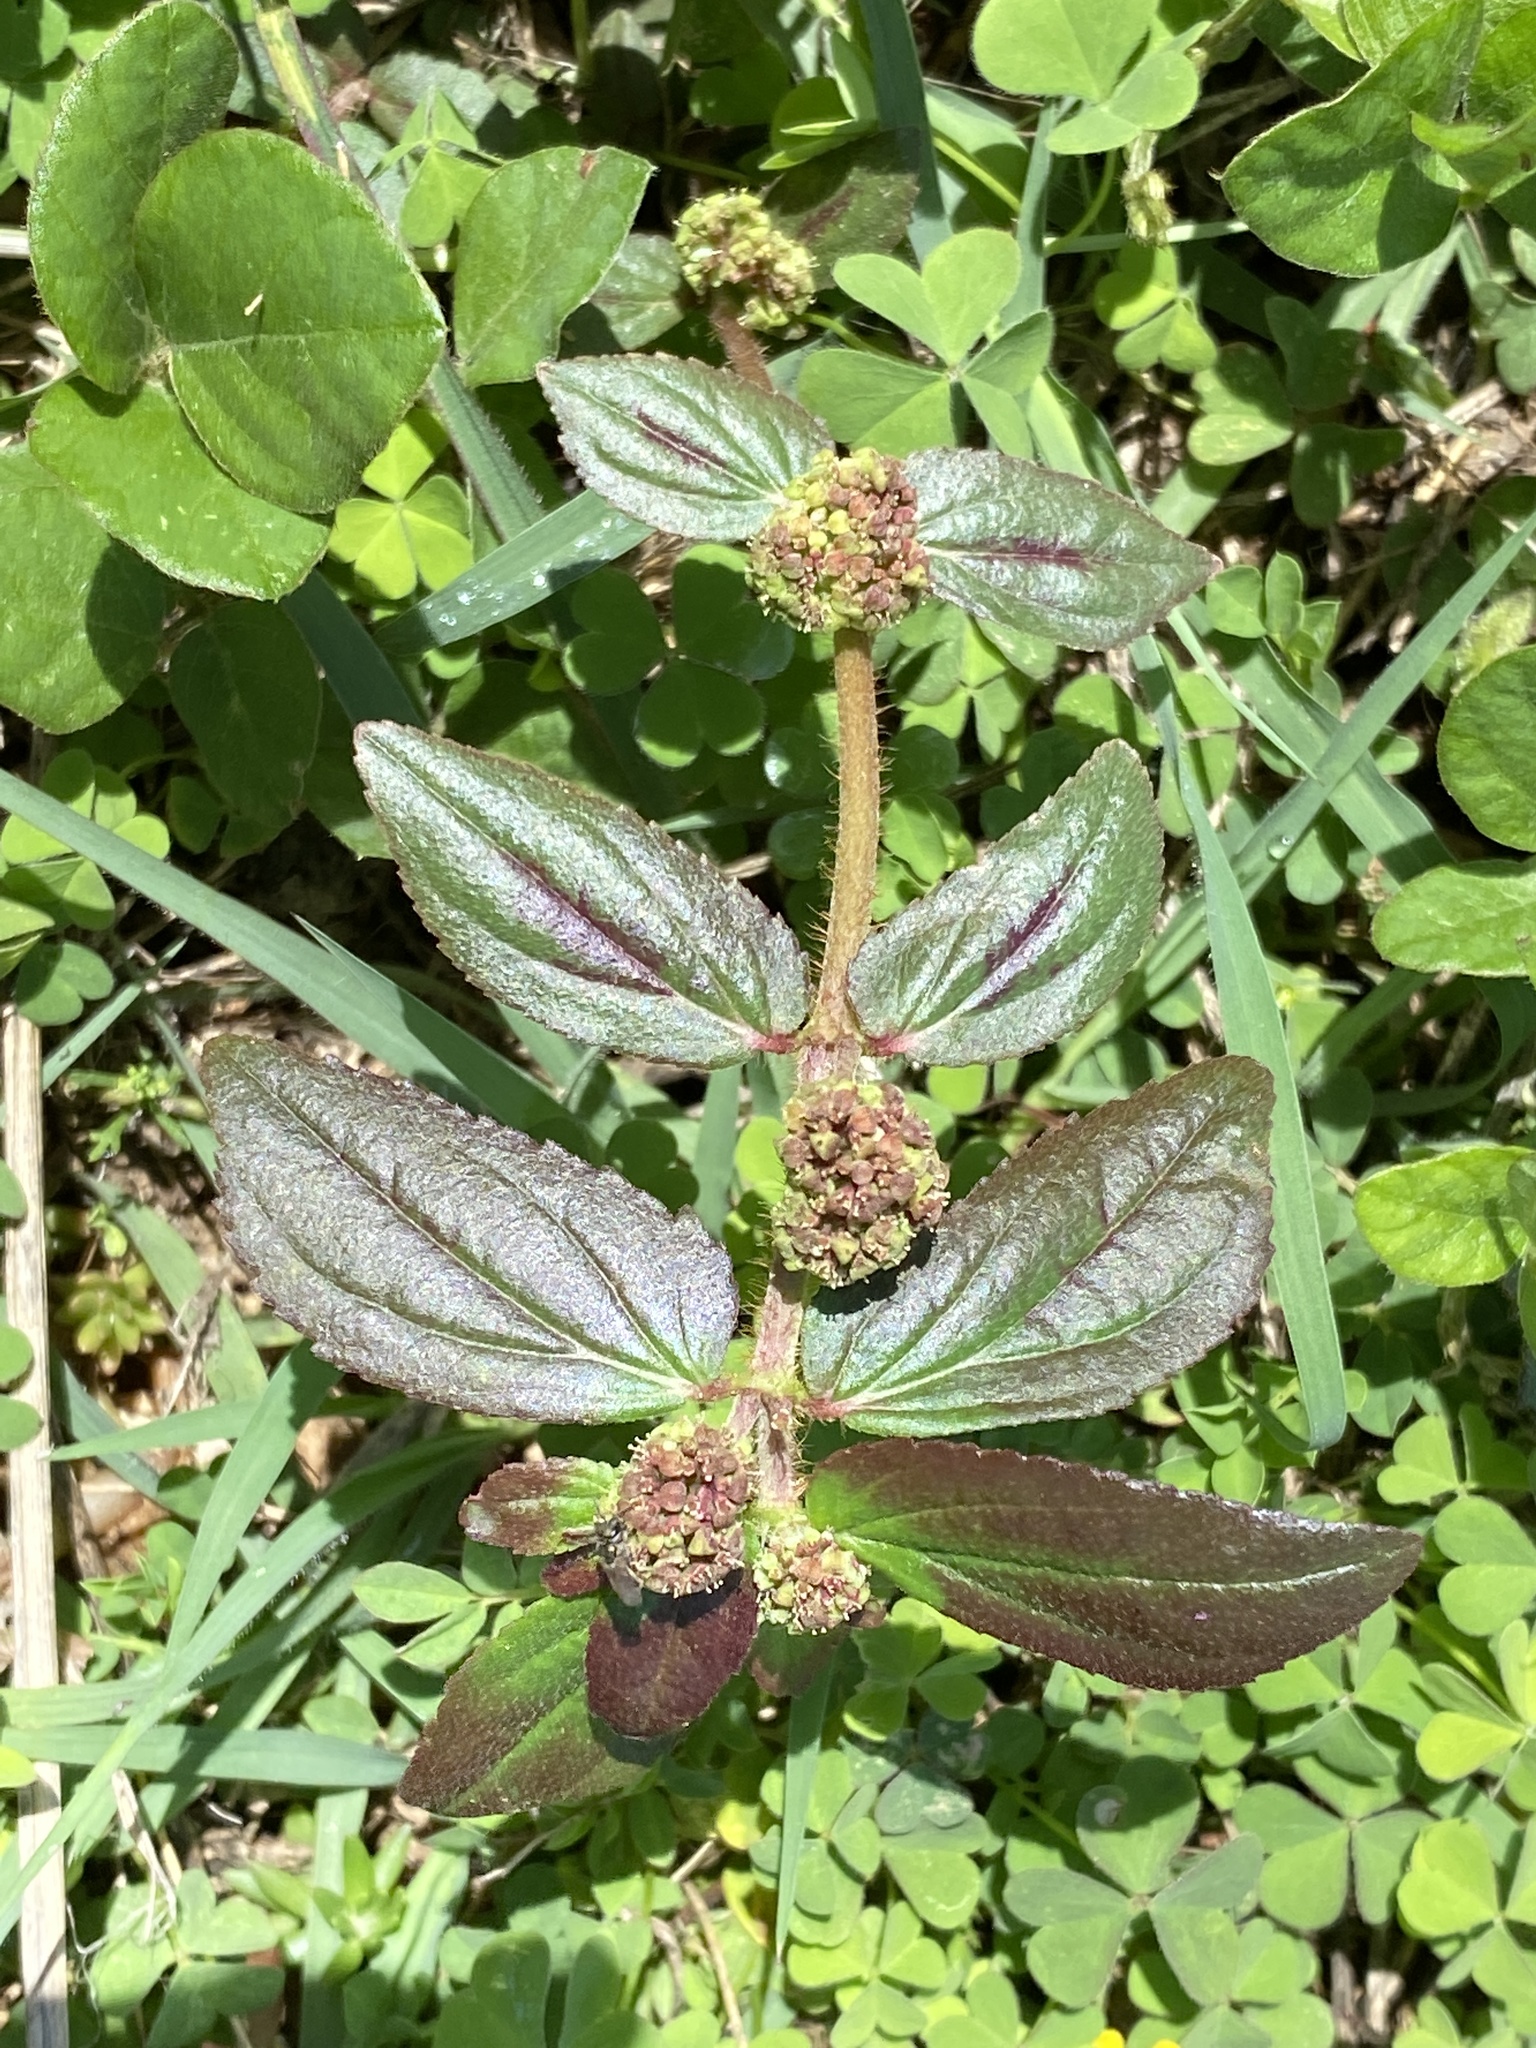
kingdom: Plantae
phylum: Tracheophyta
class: Magnoliopsida
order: Malpighiales
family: Euphorbiaceae
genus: Euphorbia
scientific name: Euphorbia hirta
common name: Pillpod sandmat
